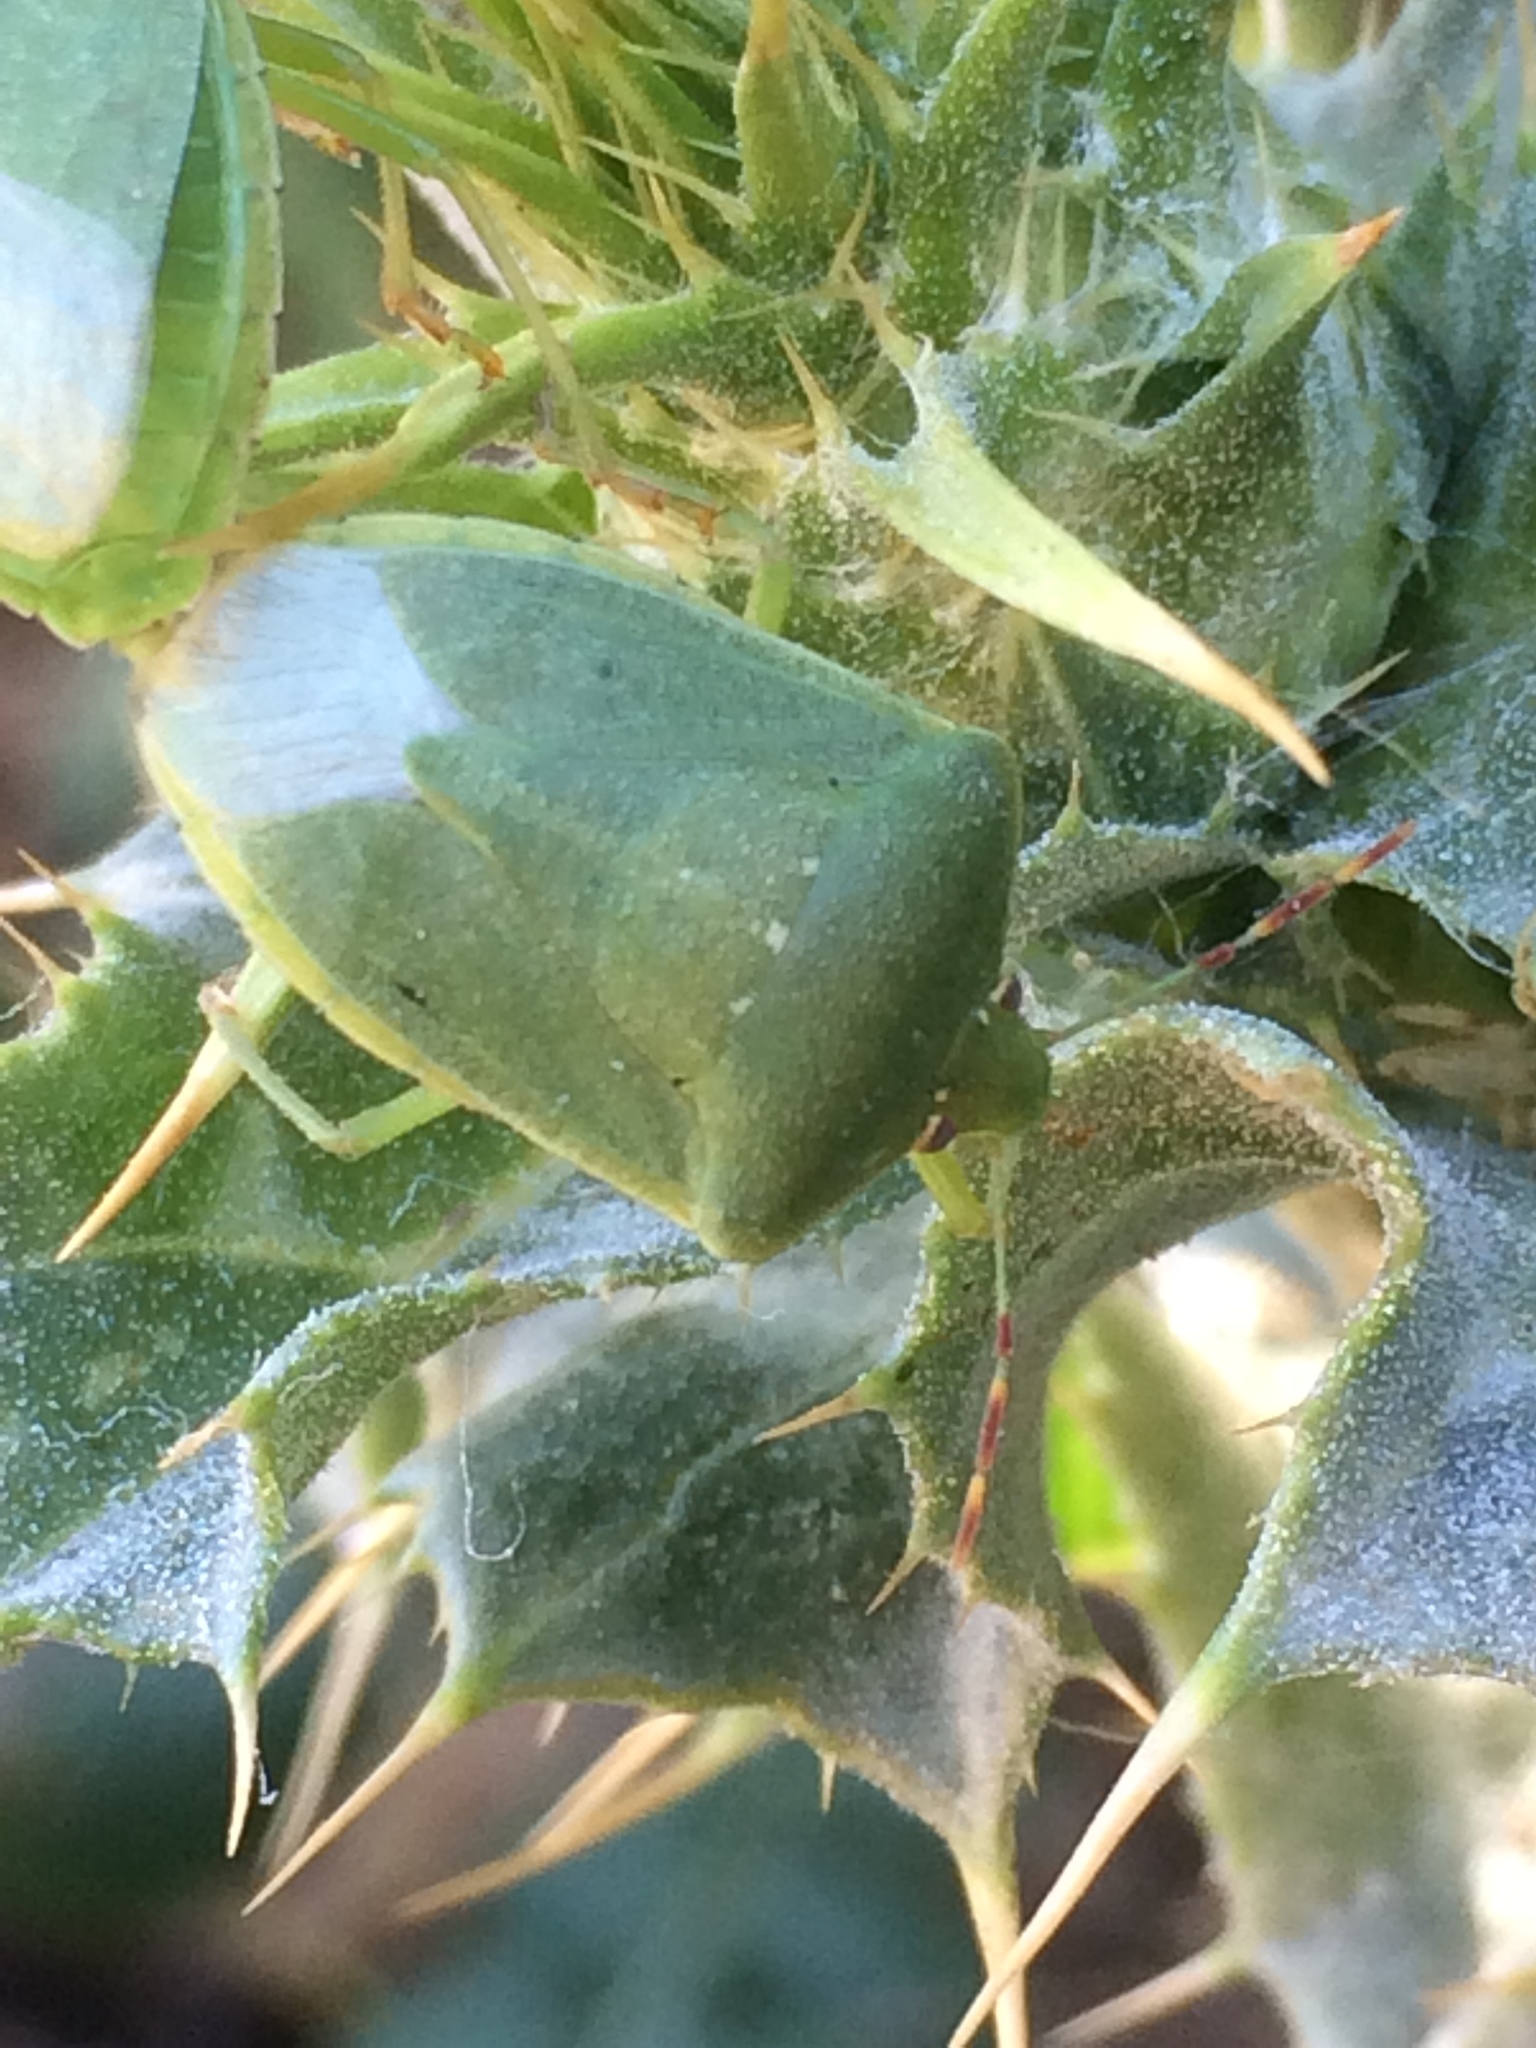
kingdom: Animalia
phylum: Arthropoda
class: Insecta
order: Hemiptera
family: Pentatomidae
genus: Nezara
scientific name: Nezara viridula
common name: Southern green stink bug
